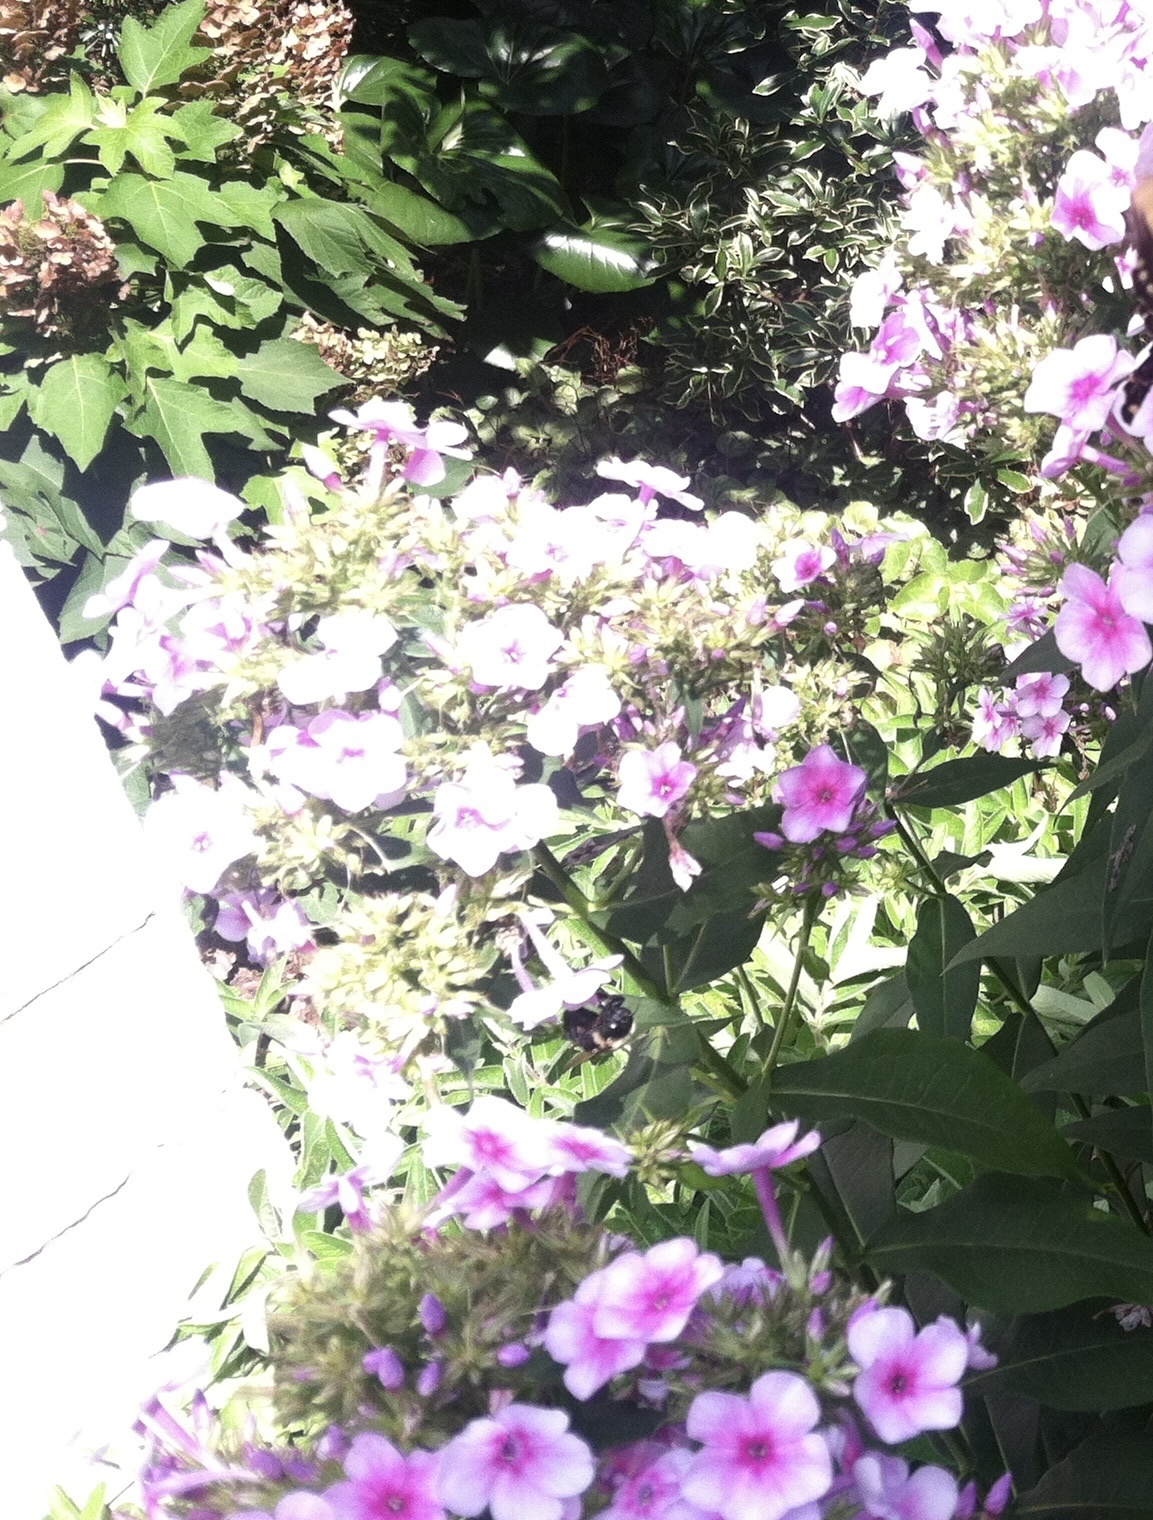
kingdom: Animalia
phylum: Arthropoda
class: Insecta
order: Hymenoptera
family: Apidae
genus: Xylocopa
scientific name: Xylocopa virginica
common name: Carpenter bee
